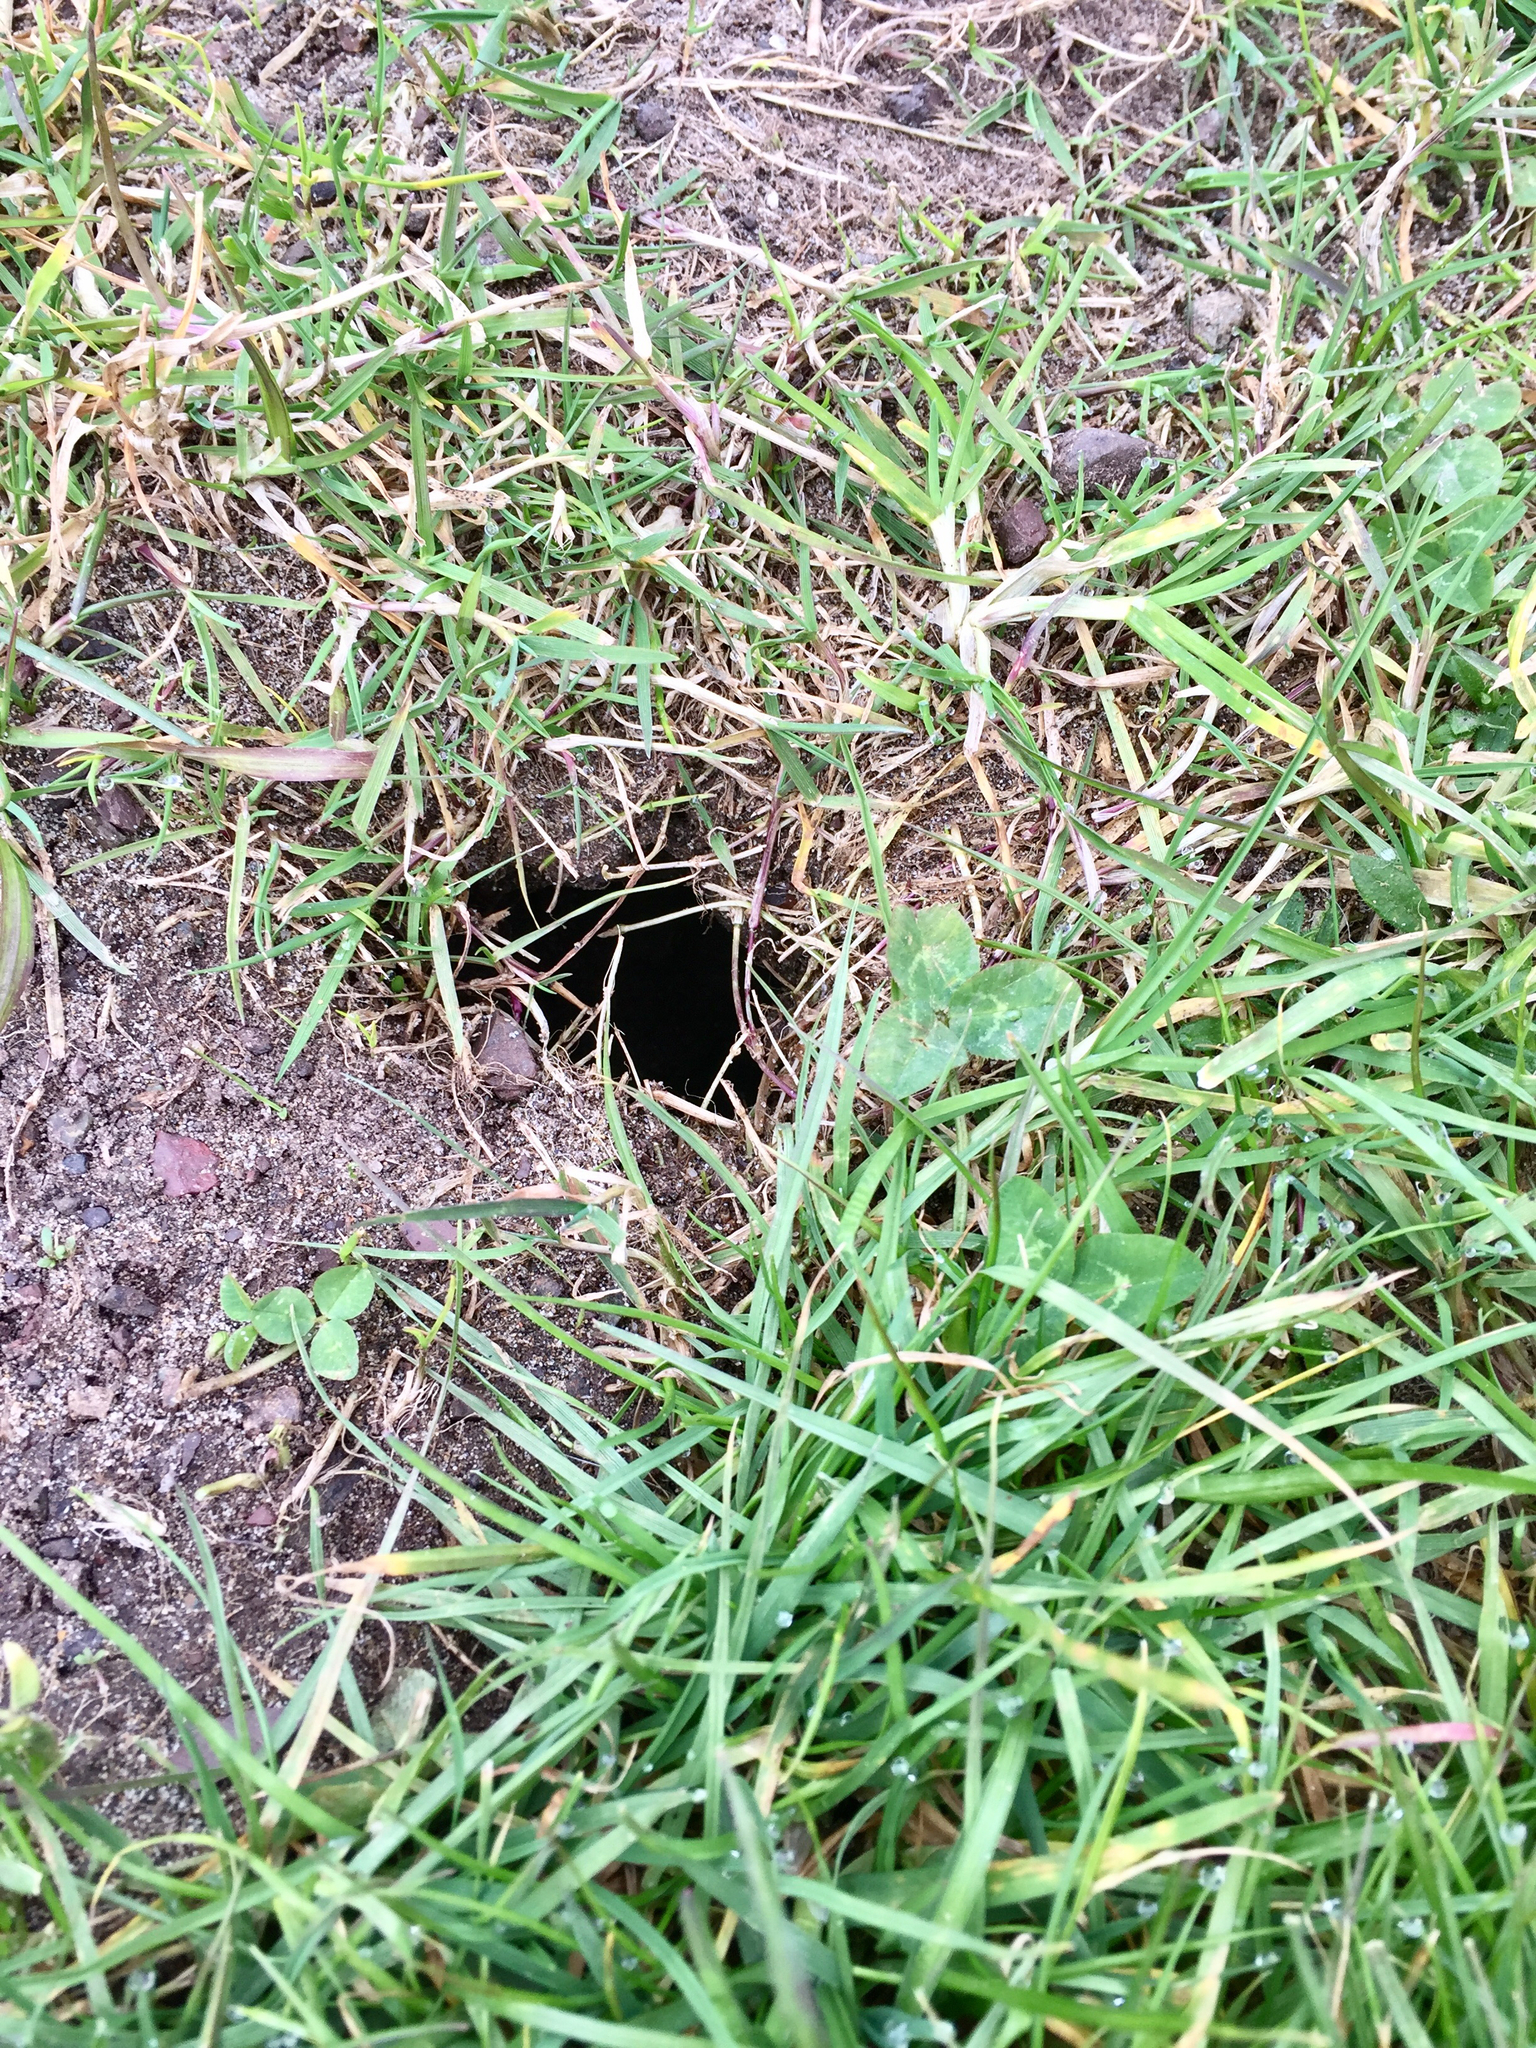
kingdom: Animalia
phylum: Arthropoda
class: Insecta
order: Hymenoptera
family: Apidae
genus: Bombus
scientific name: Bombus vosnesenskii
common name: Vosnesensky bumble bee
